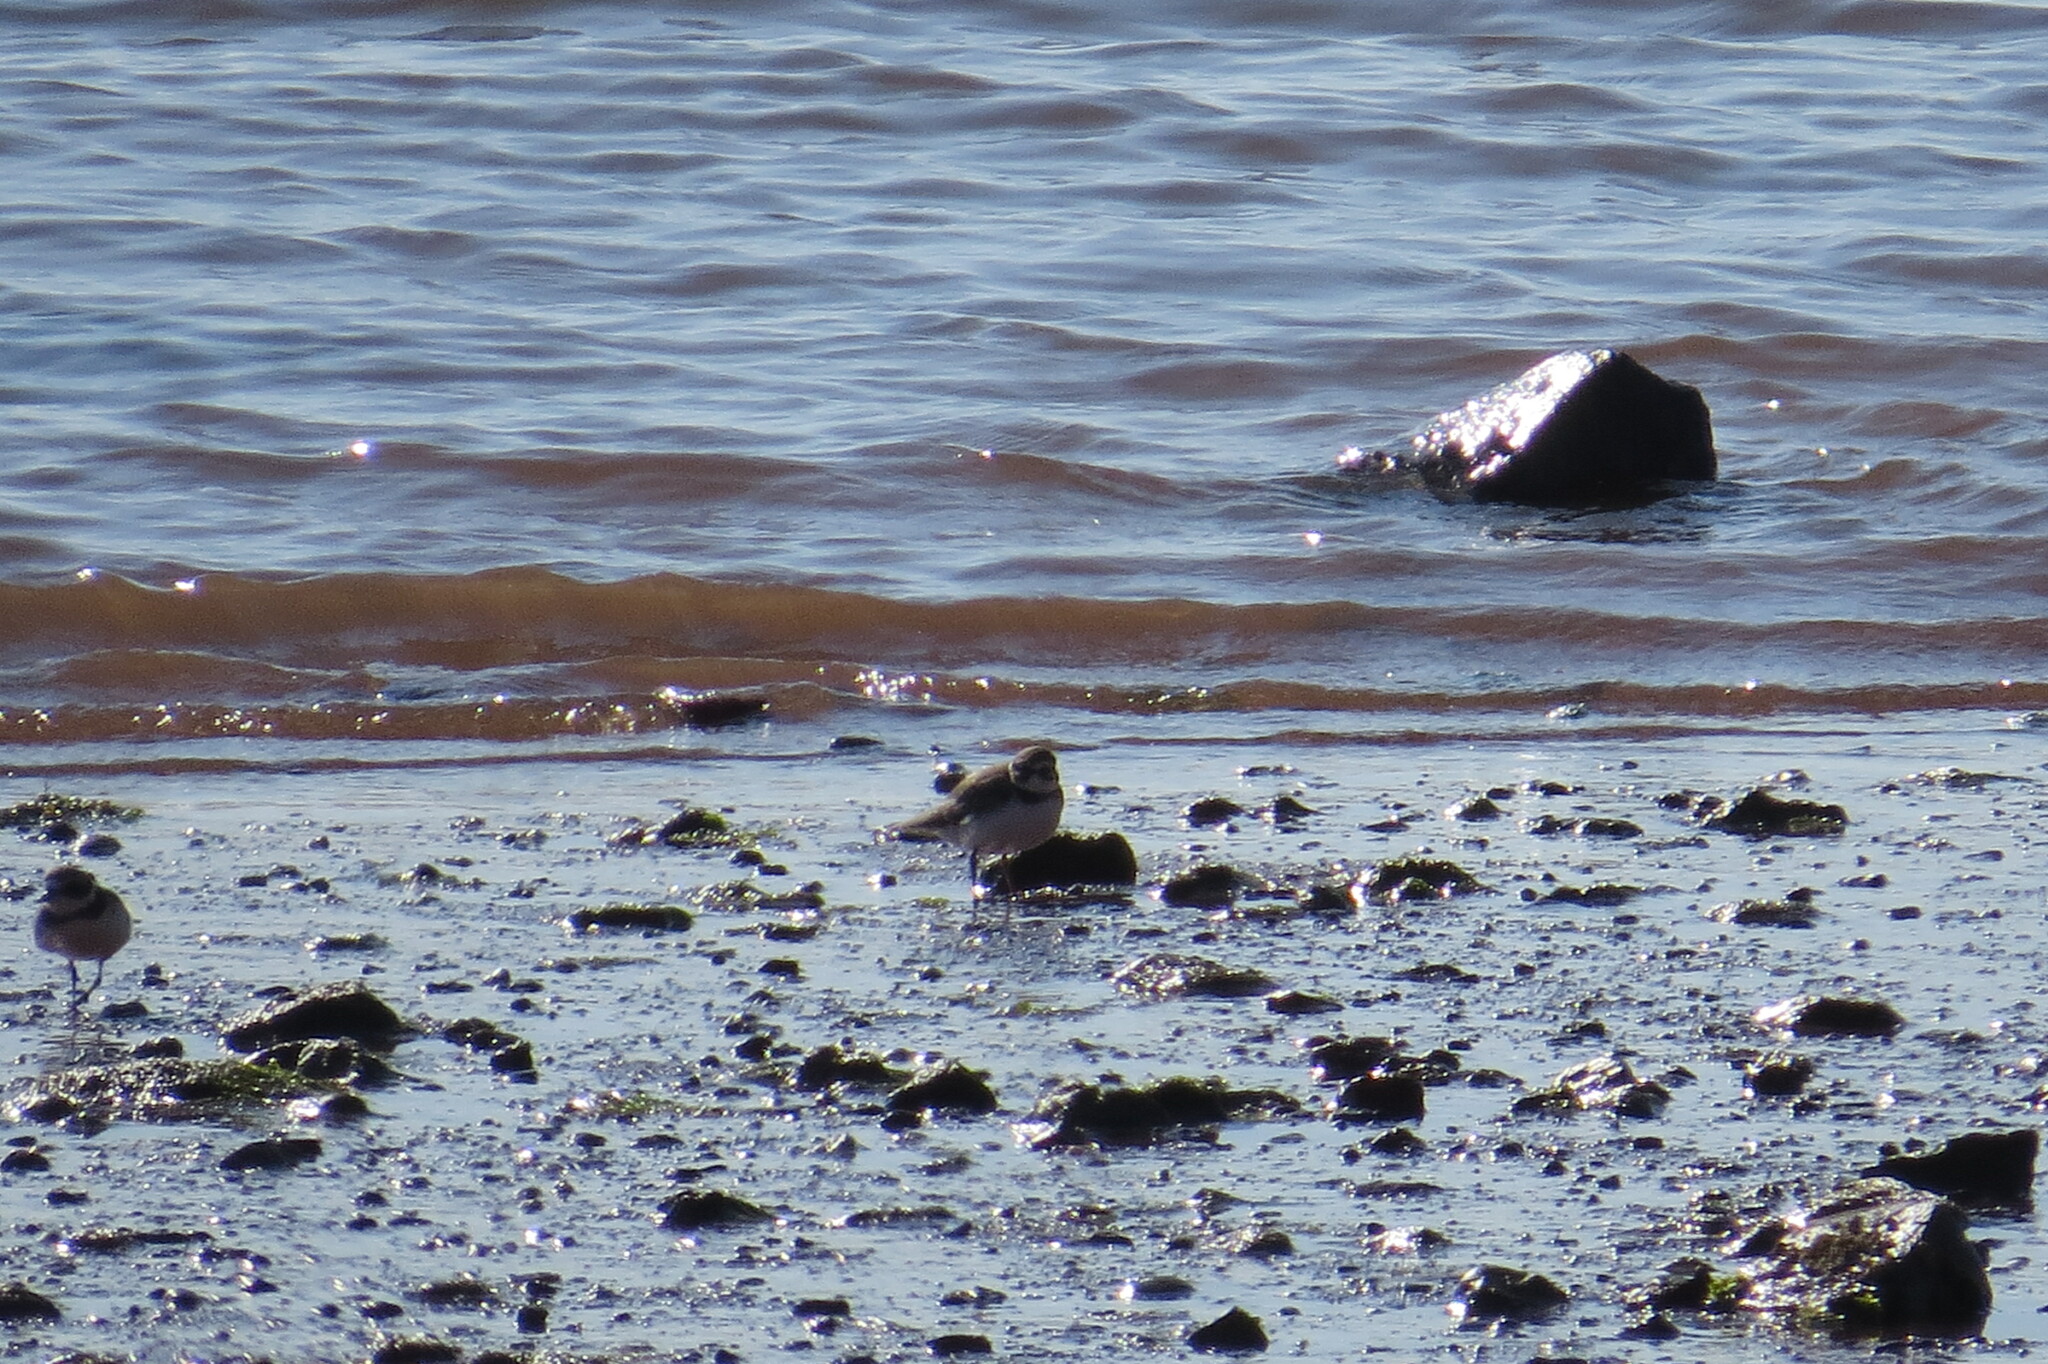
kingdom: Animalia
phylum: Chordata
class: Aves
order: Charadriiformes
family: Charadriidae
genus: Charadrius
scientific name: Charadrius semipalmatus
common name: Semipalmated plover
